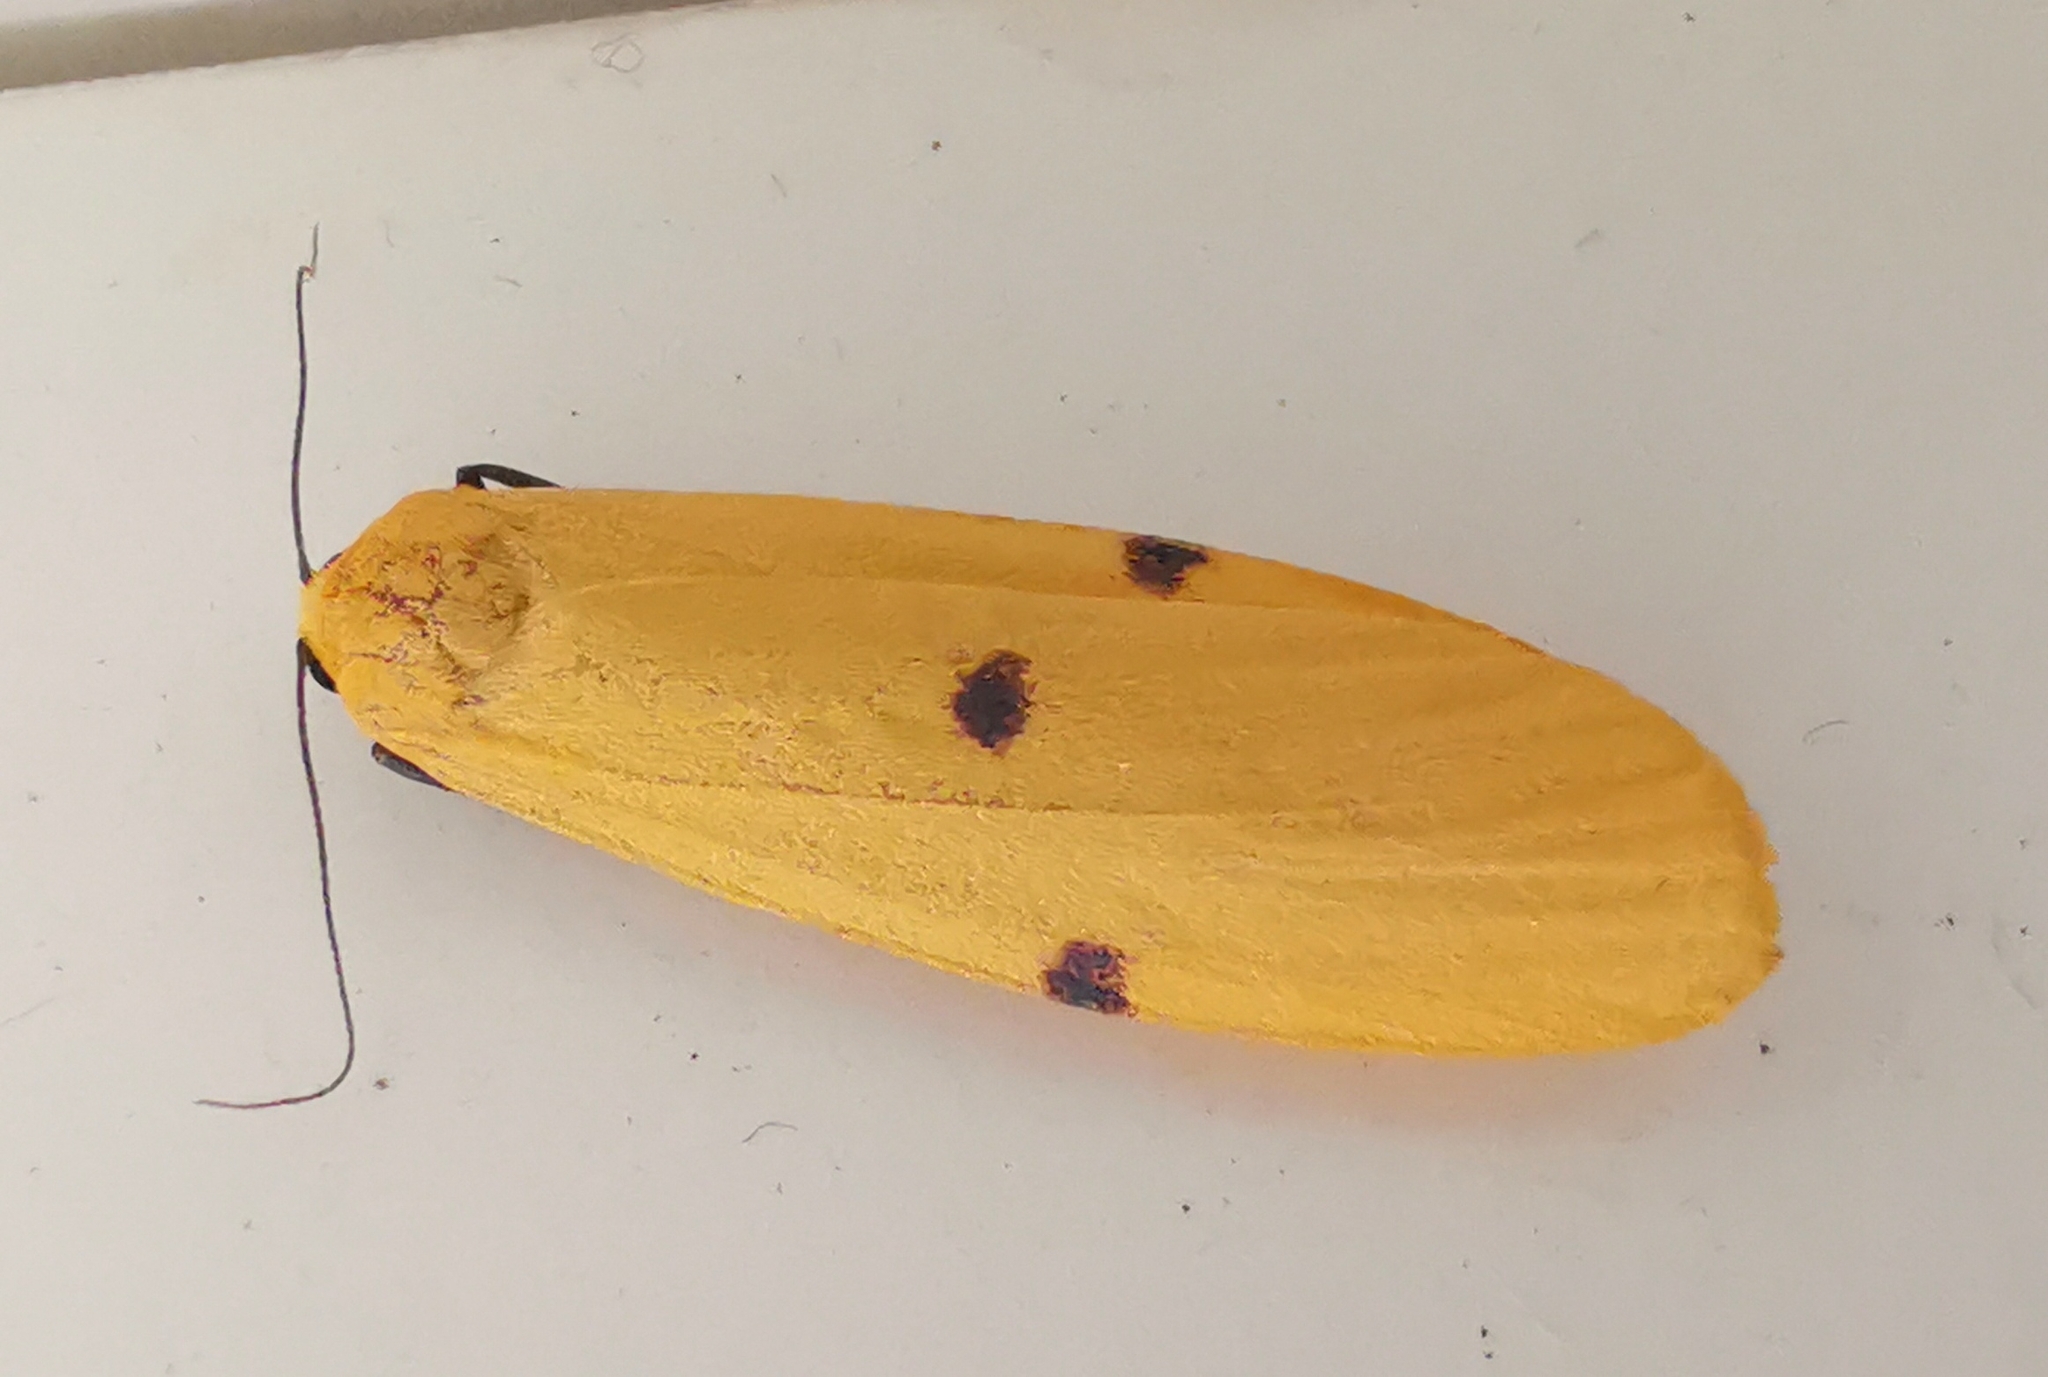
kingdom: Animalia
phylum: Arthropoda
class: Insecta
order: Lepidoptera
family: Erebidae
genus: Lithosia
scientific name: Lithosia quadra
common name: Four-spotted footman
